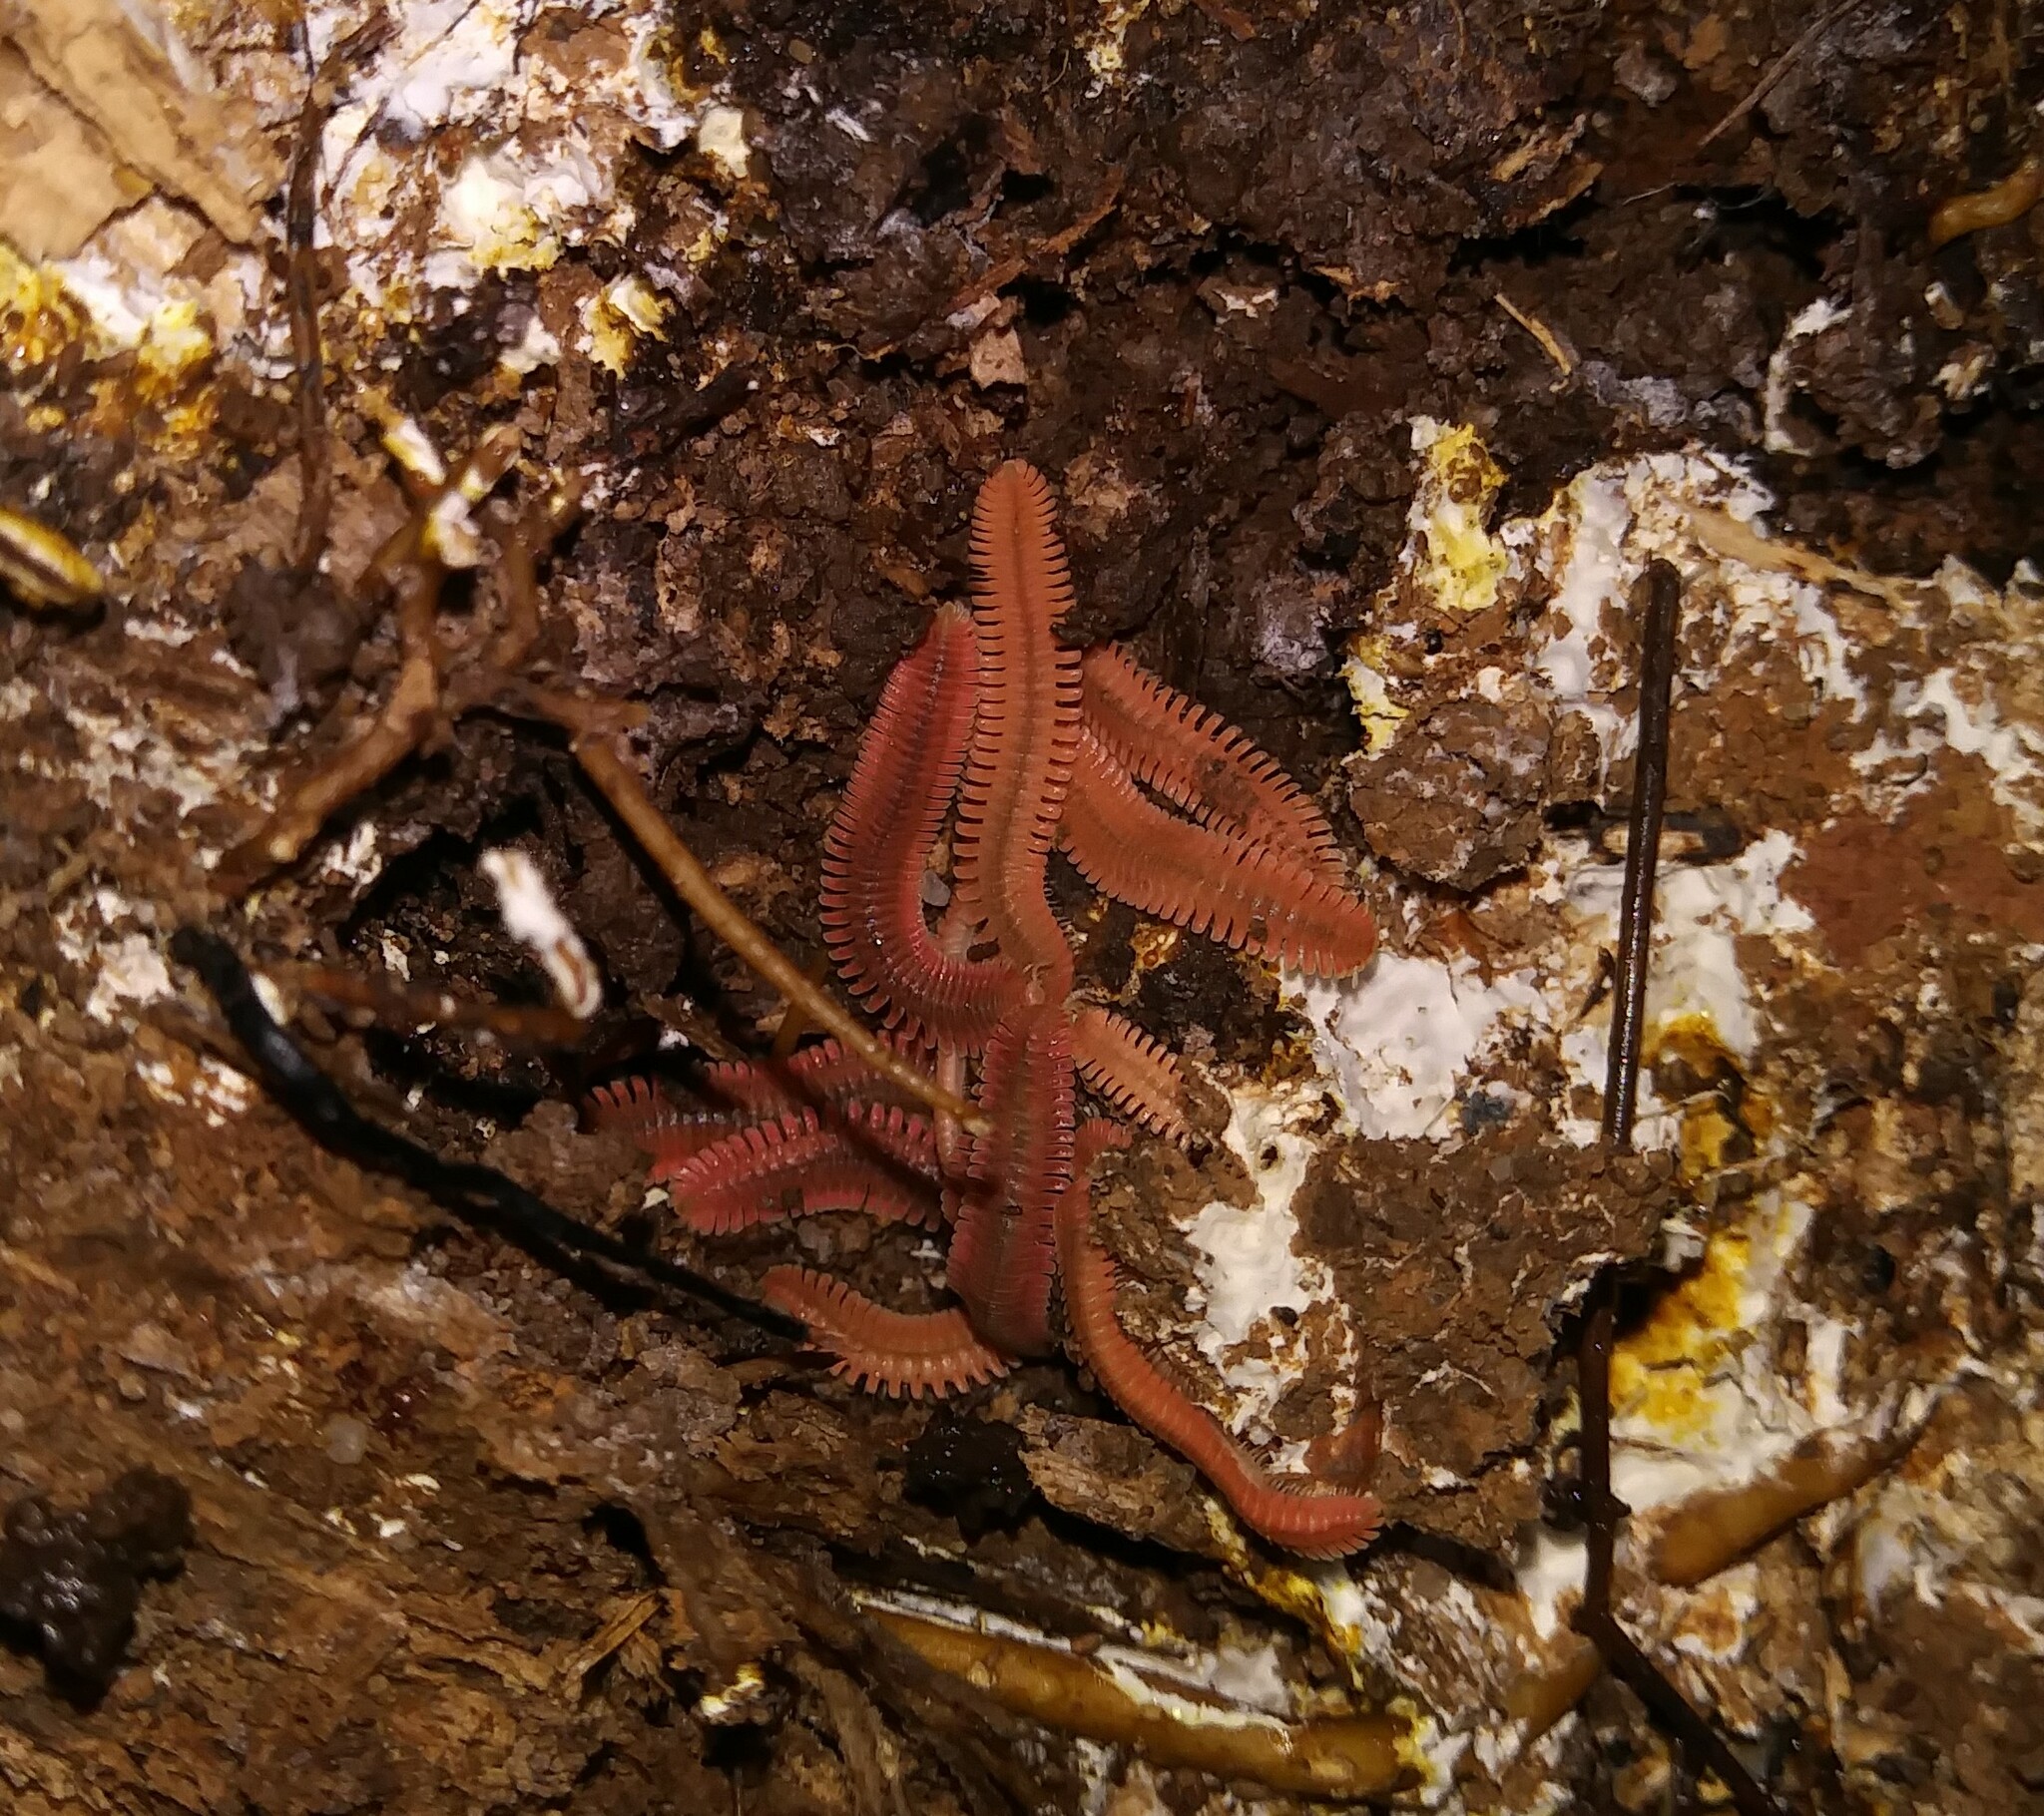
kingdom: Animalia
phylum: Arthropoda
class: Diplopoda
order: Platydesmida
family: Andrognathidae
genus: Brachycybe
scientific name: Brachycybe petasata
